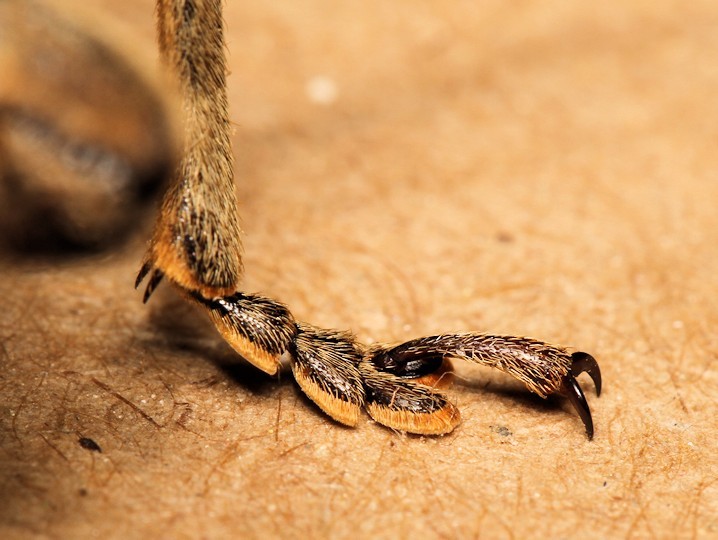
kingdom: Animalia
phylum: Arthropoda
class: Insecta
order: Coleoptera
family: Cerambycidae
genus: Tithoes
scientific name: Tithoes confinis
